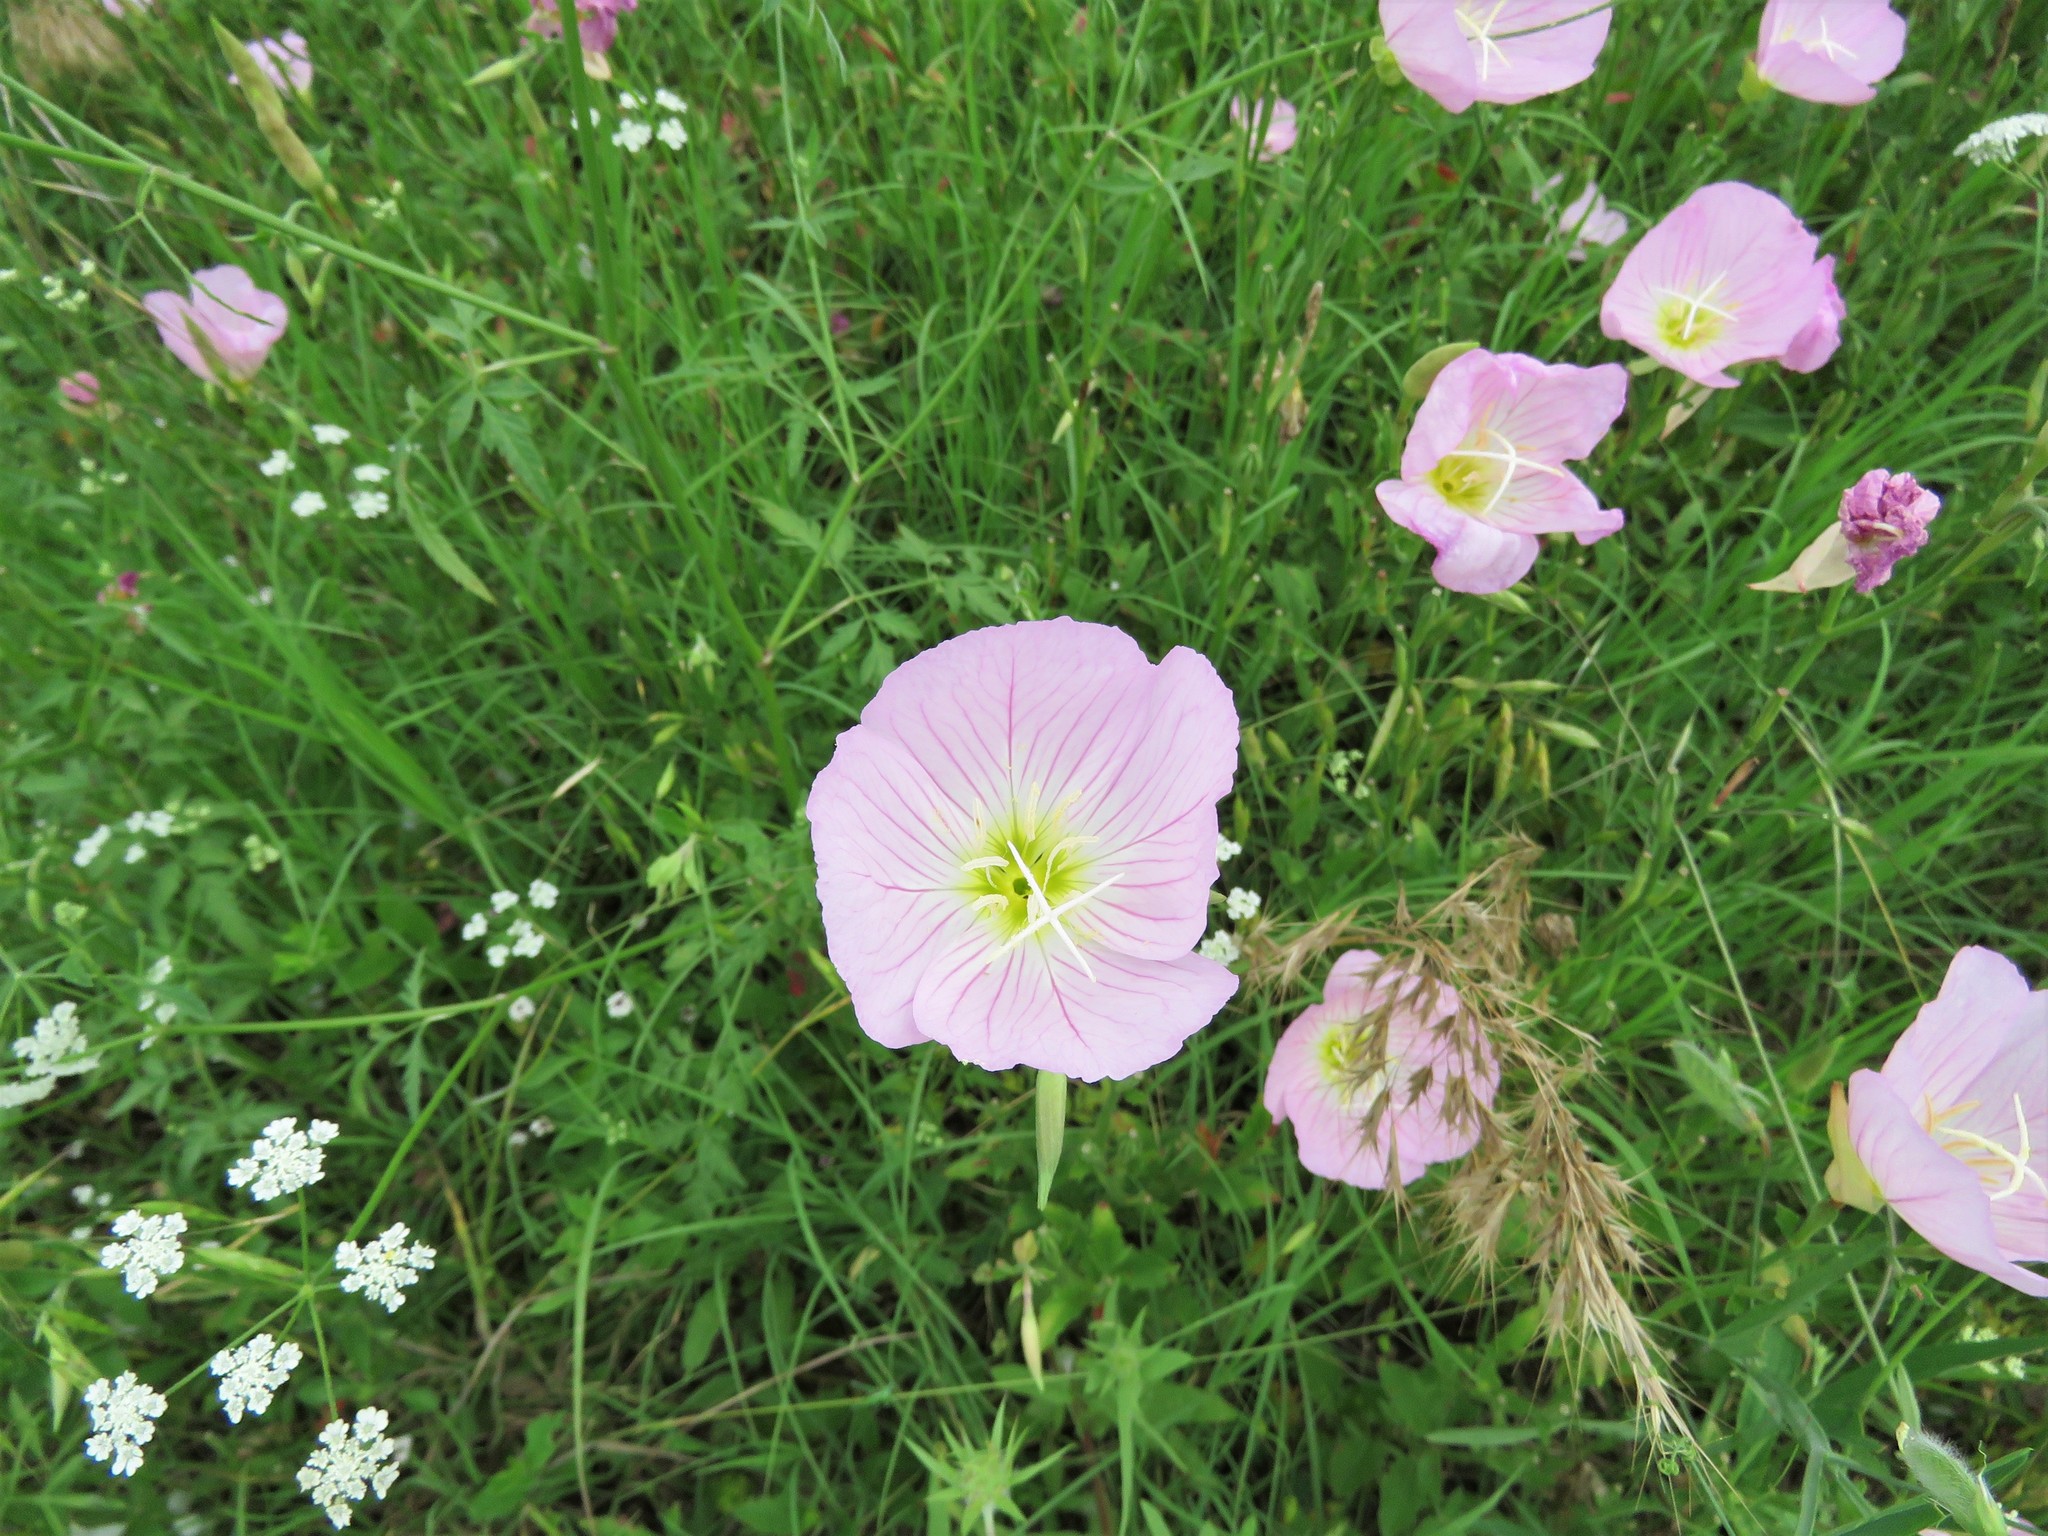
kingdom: Plantae
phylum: Tracheophyta
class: Magnoliopsida
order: Myrtales
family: Onagraceae
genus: Oenothera
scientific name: Oenothera speciosa
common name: White evening-primrose
